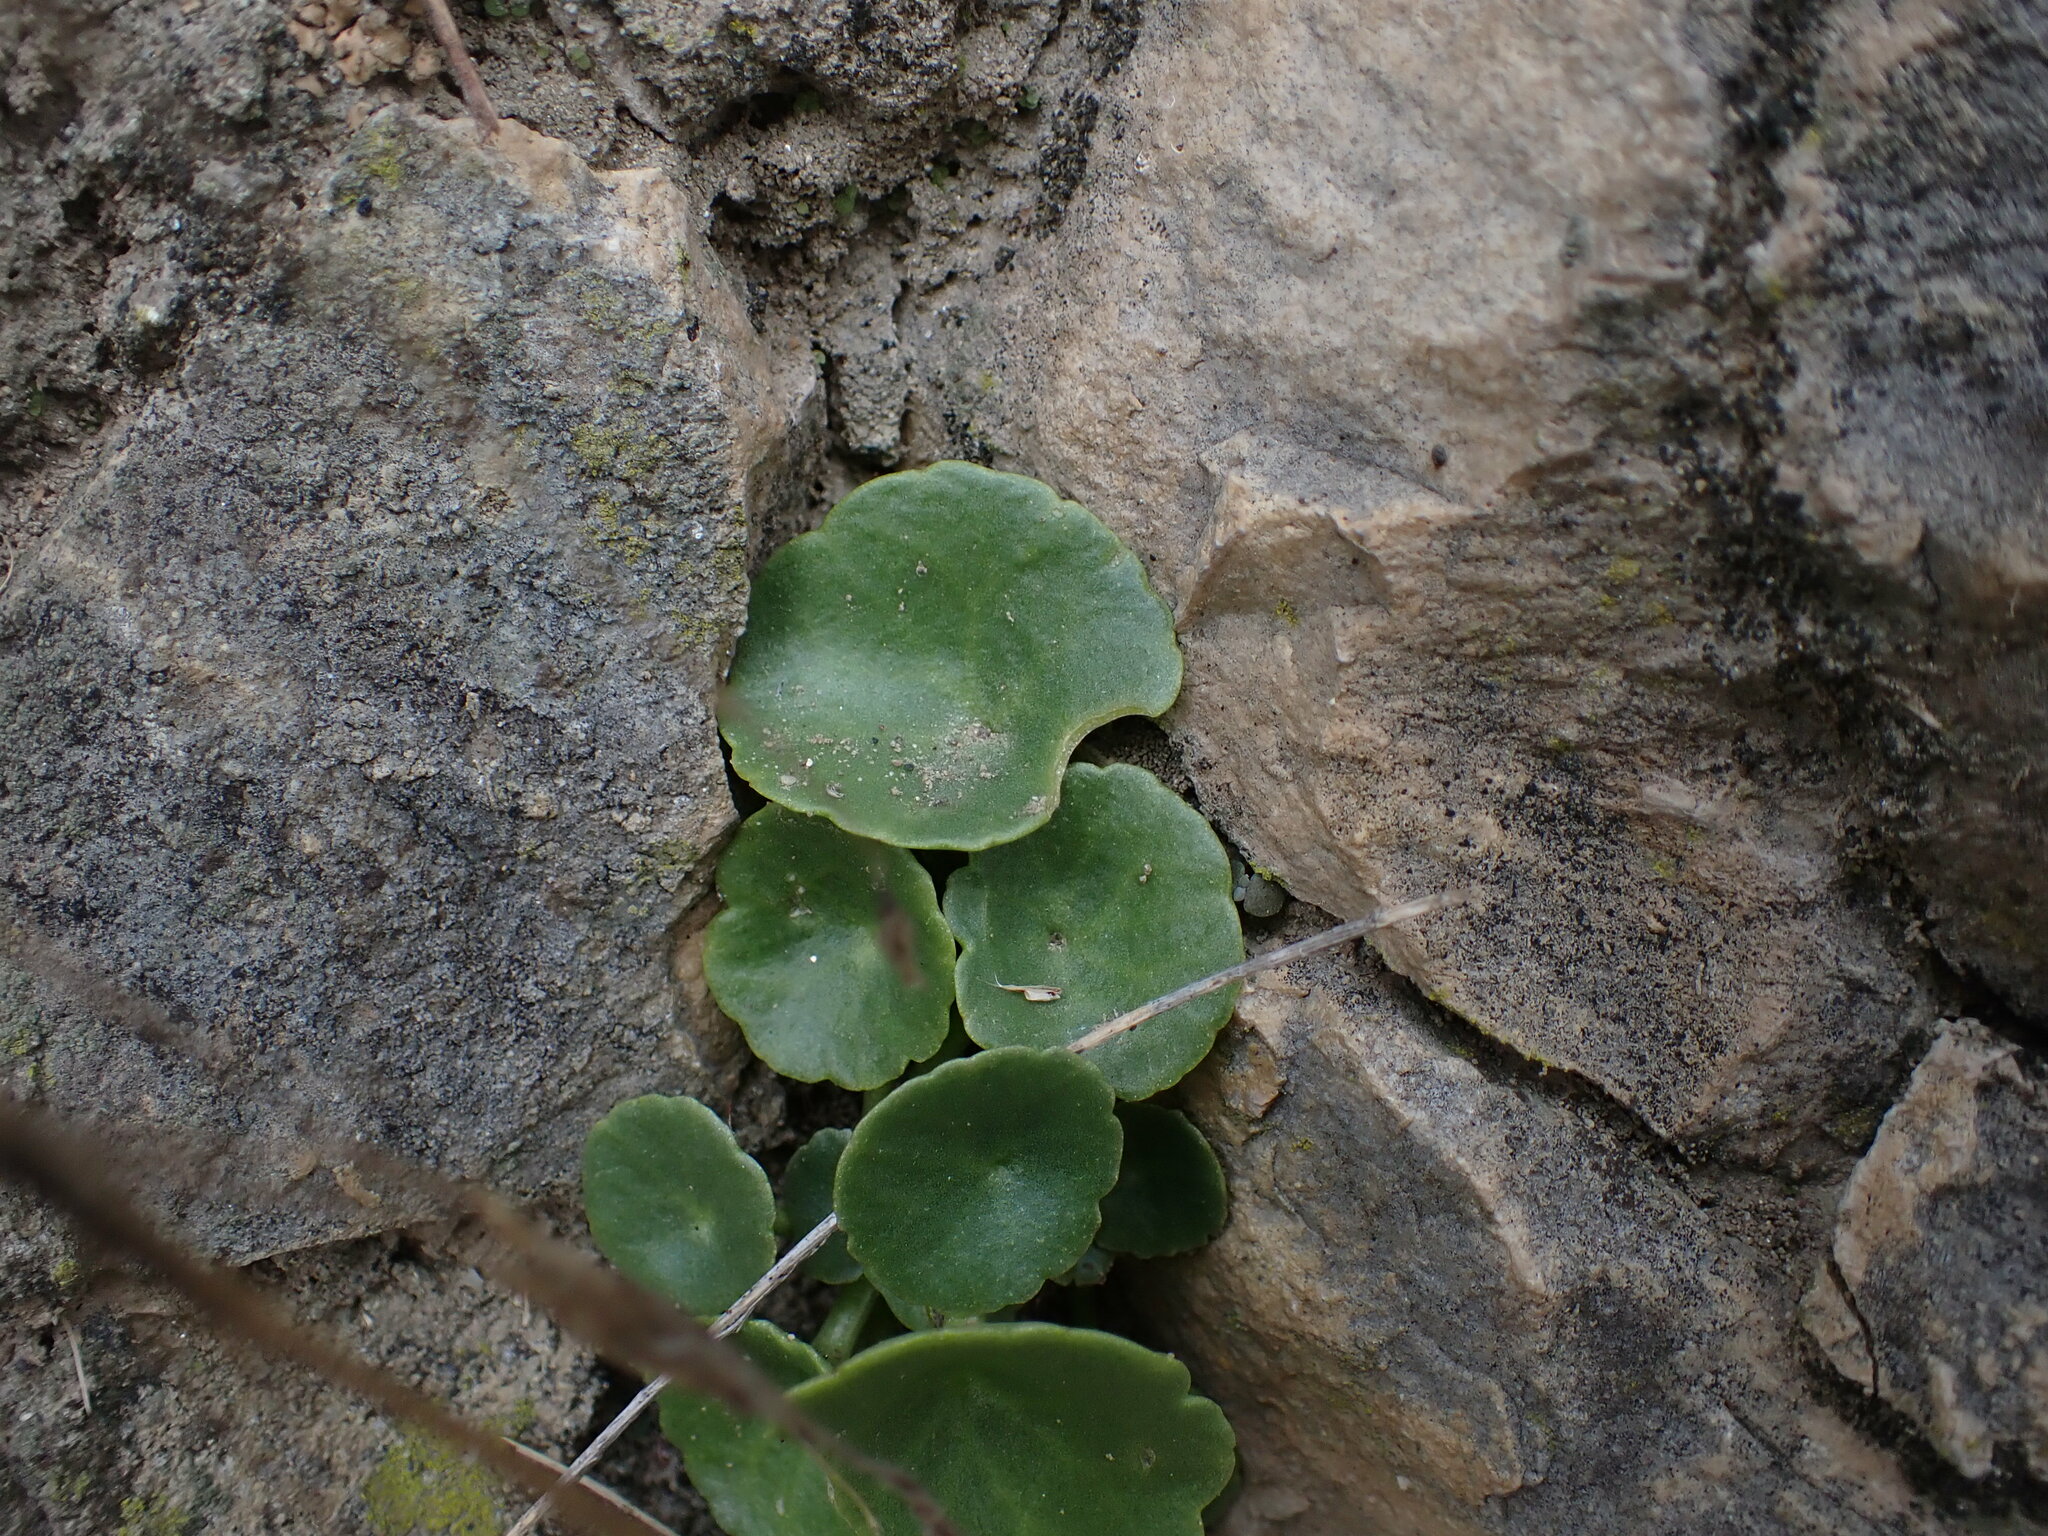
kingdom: Plantae
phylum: Tracheophyta
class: Magnoliopsida
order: Saxifragales
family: Crassulaceae
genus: Umbilicus
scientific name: Umbilicus rupestris
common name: Navelwort
